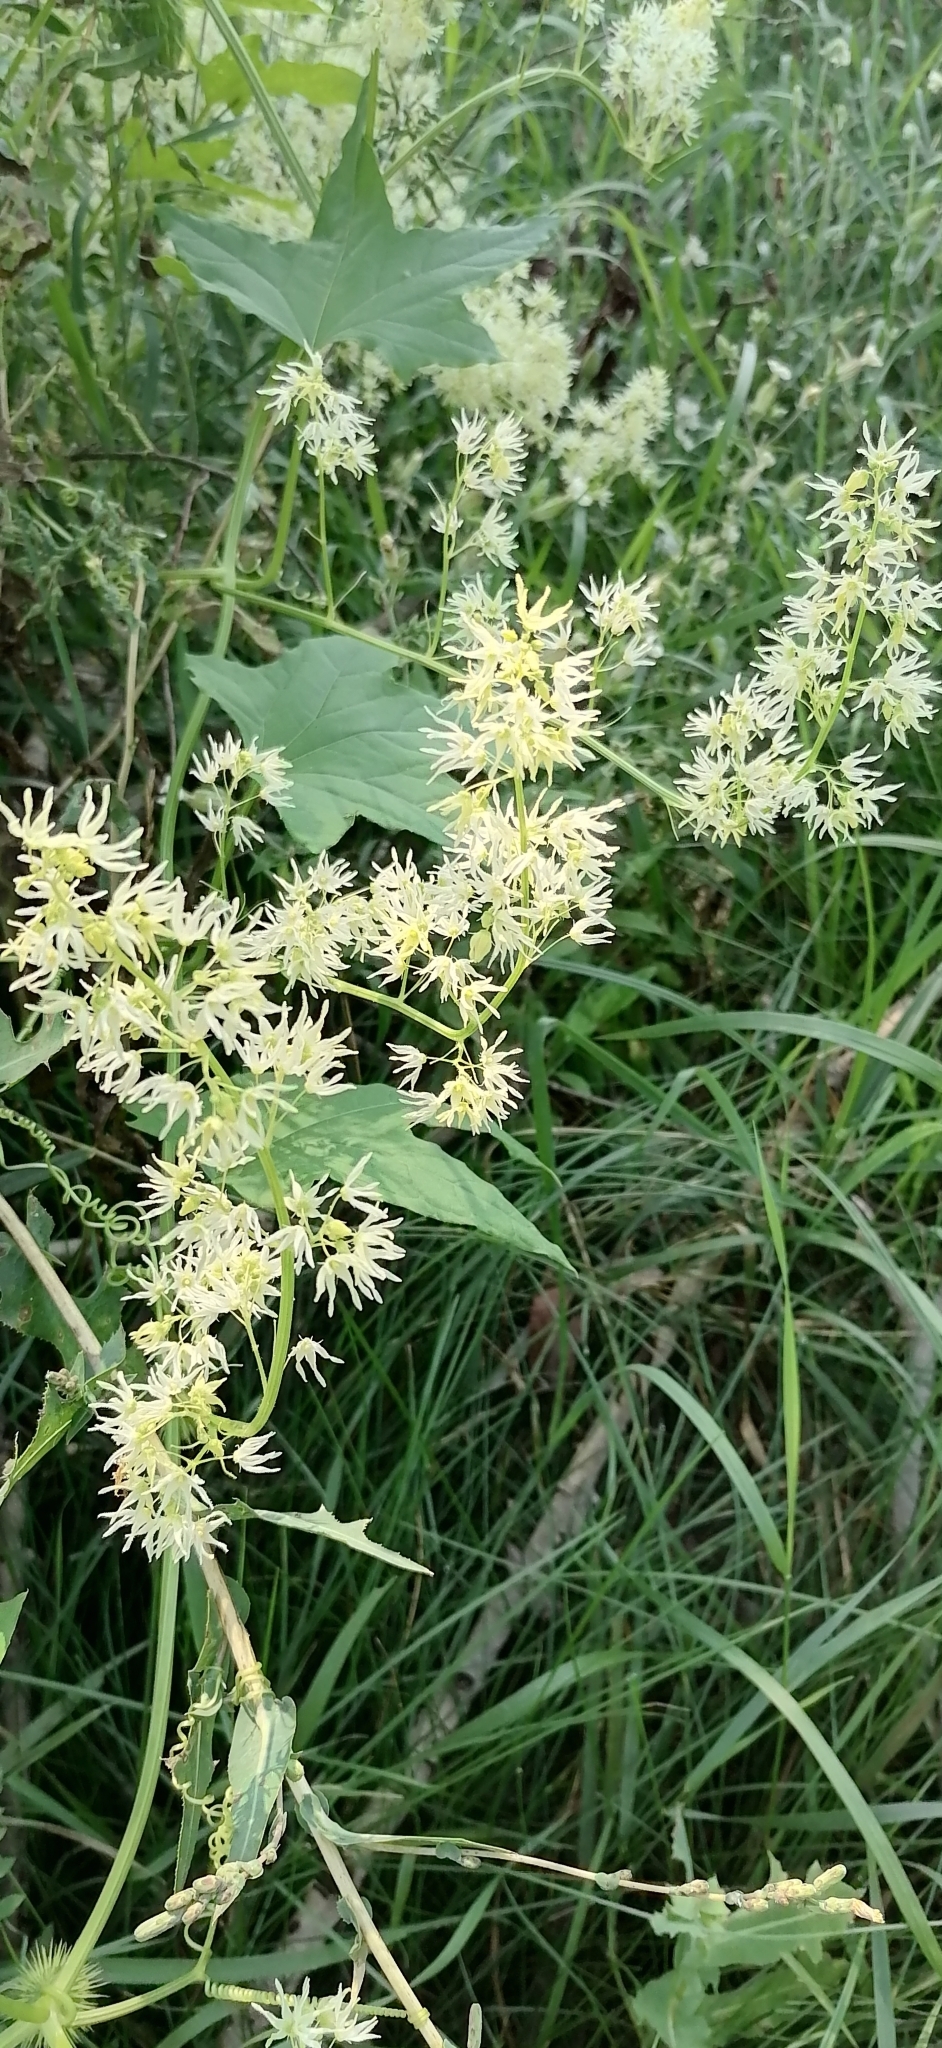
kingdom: Plantae
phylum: Tracheophyta
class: Magnoliopsida
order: Cucurbitales
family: Cucurbitaceae
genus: Echinocystis
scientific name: Echinocystis lobata
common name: Wild cucumber
